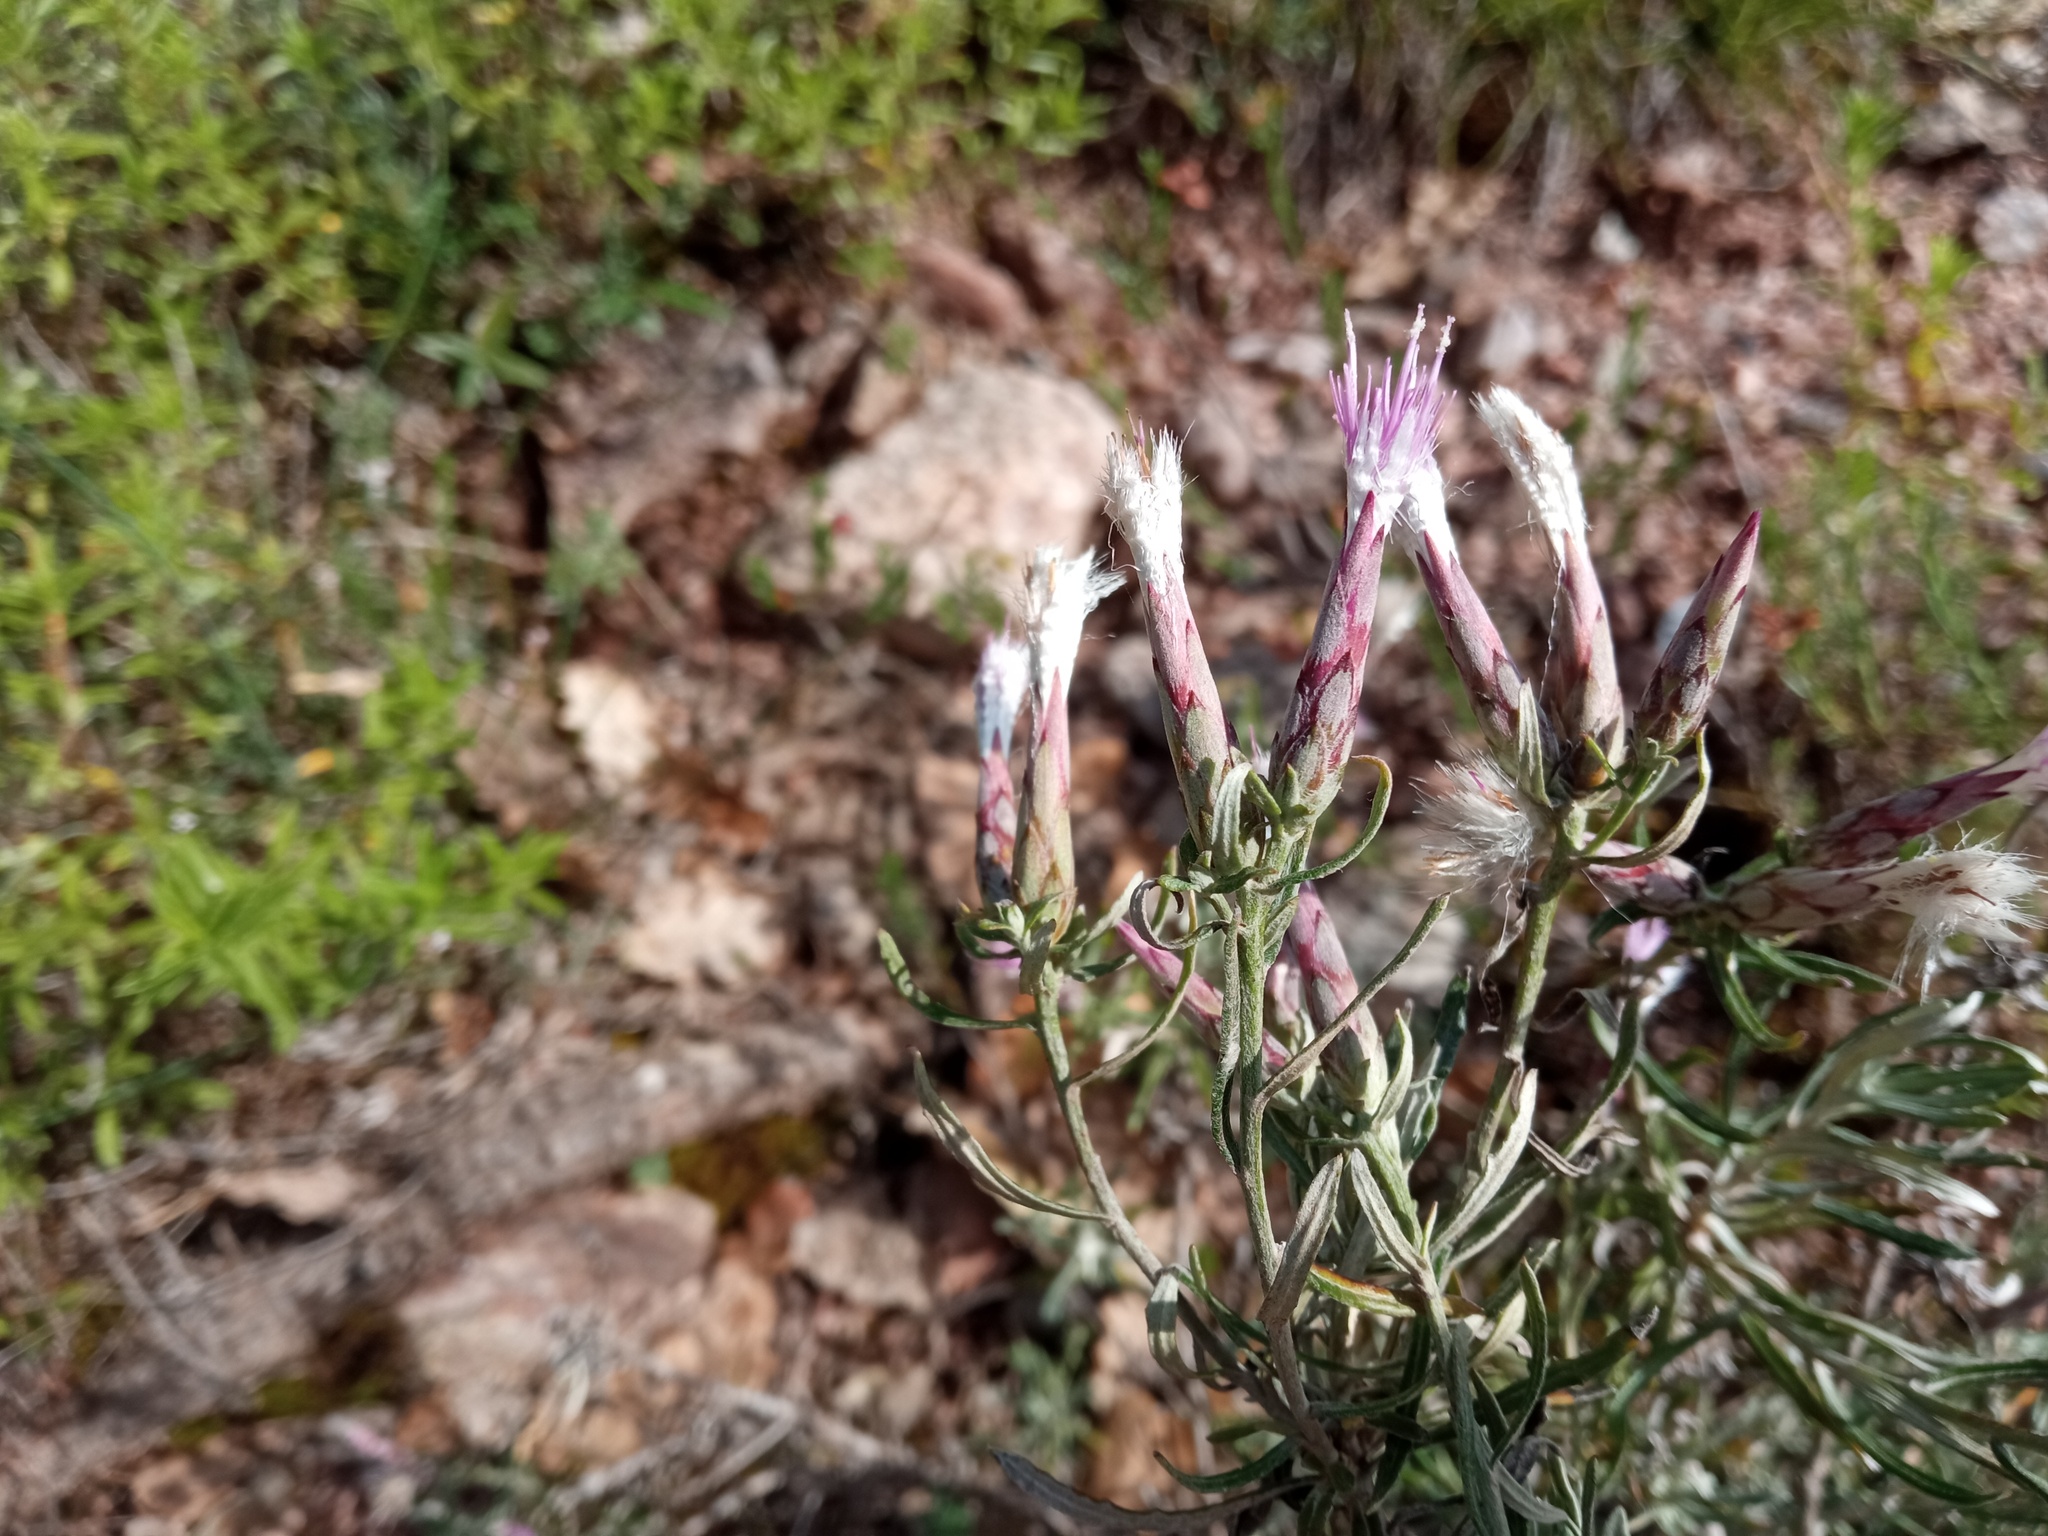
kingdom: Plantae
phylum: Tracheophyta
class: Magnoliopsida
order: Asterales
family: Asteraceae
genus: Staehelina
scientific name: Staehelina dubia
